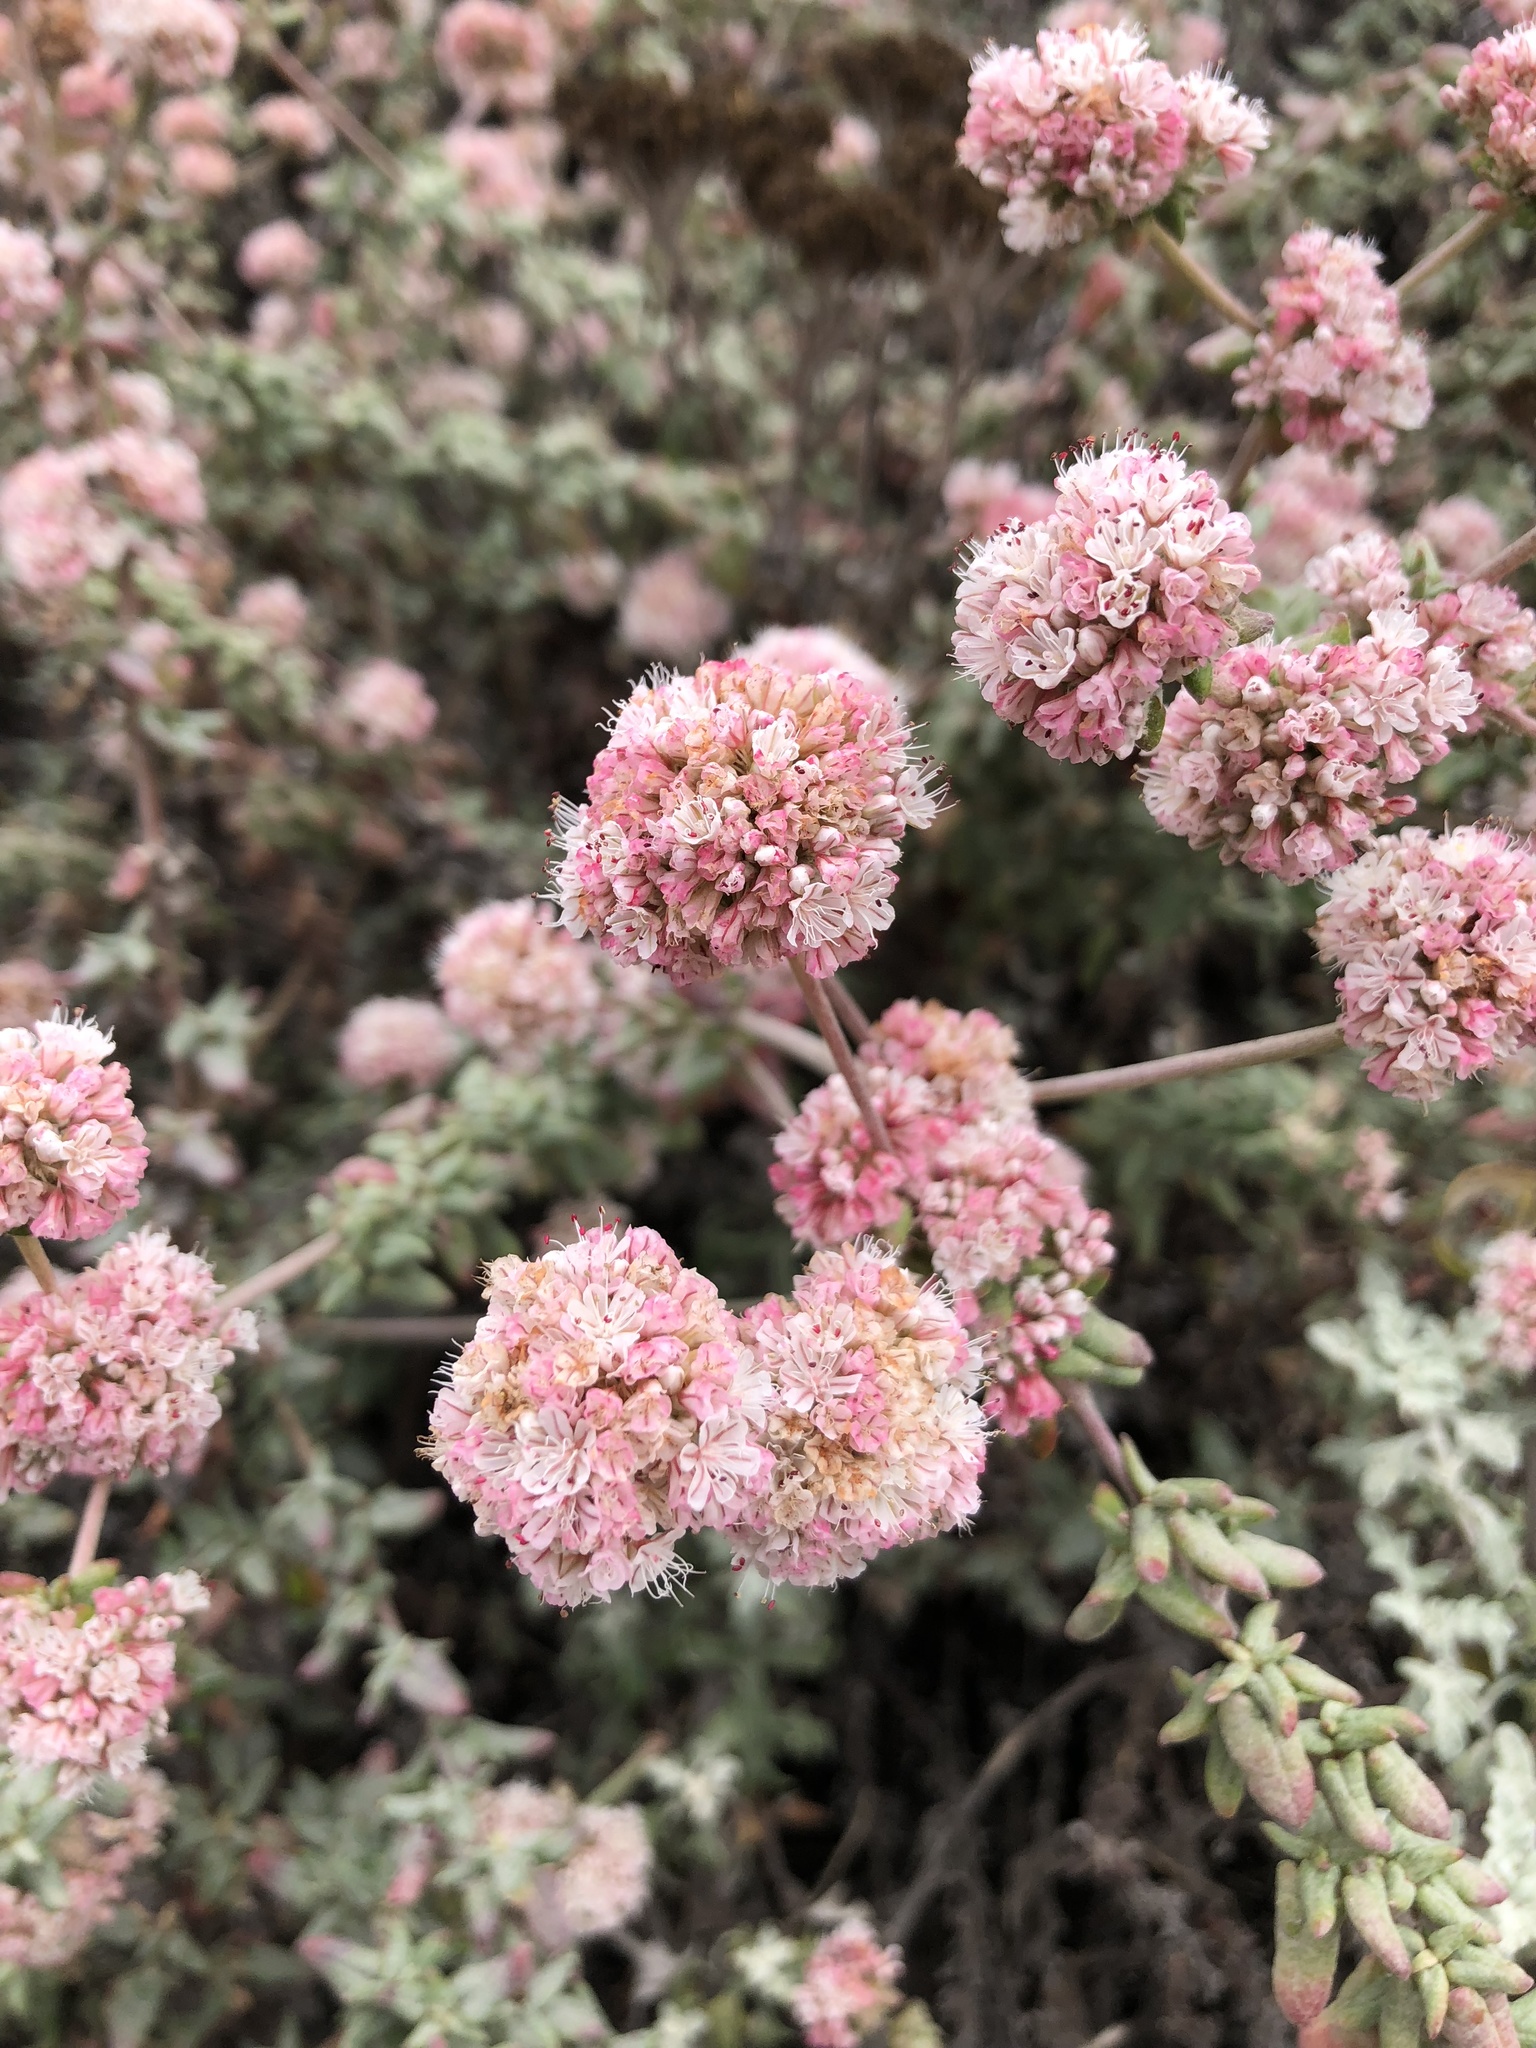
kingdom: Plantae
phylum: Tracheophyta
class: Magnoliopsida
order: Caryophyllales
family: Polygonaceae
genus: Eriogonum
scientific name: Eriogonum parvifolium
